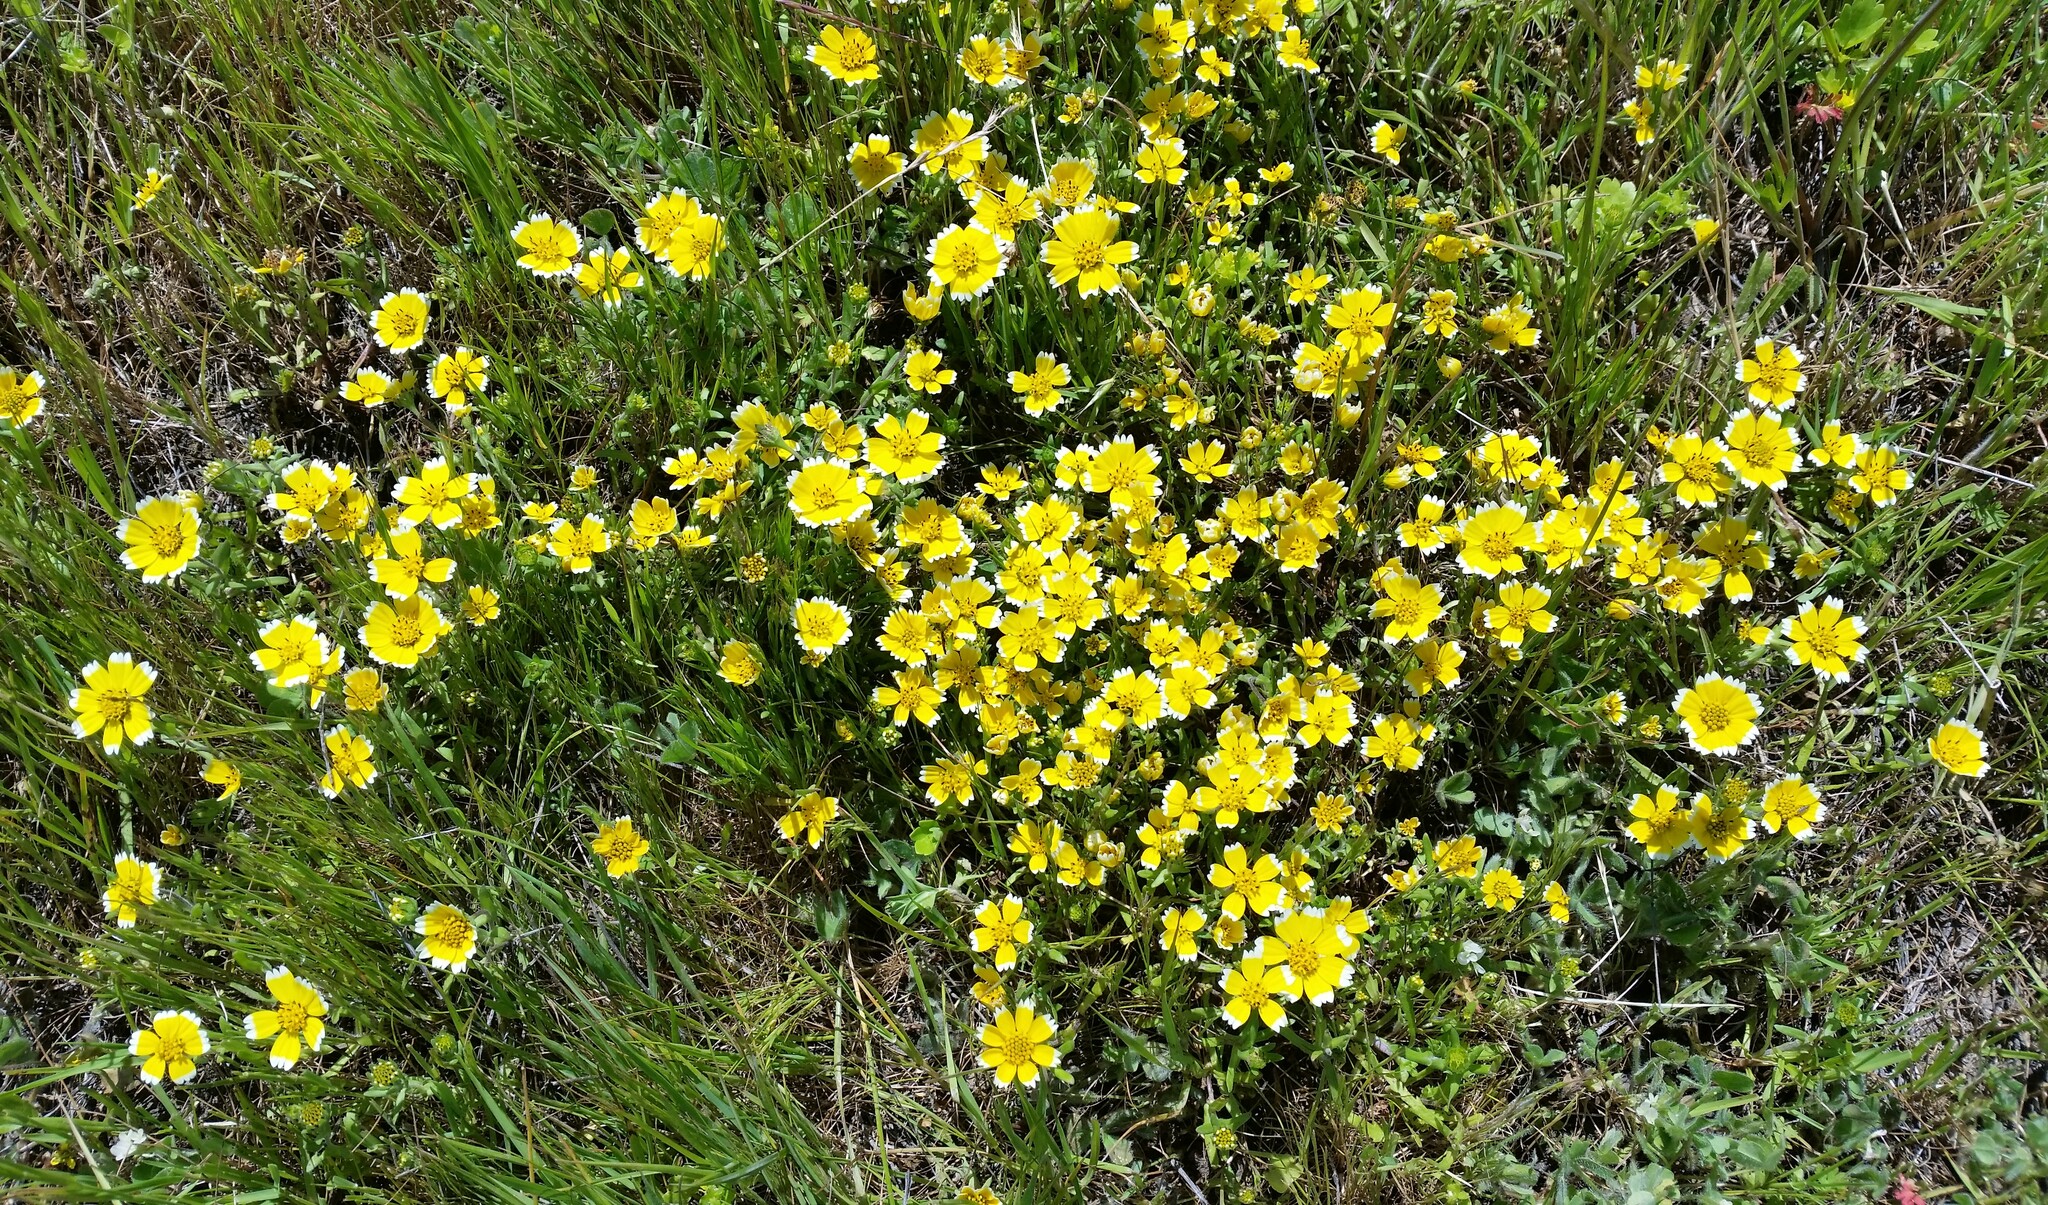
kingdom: Plantae
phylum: Tracheophyta
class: Magnoliopsida
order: Asterales
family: Asteraceae
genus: Layia
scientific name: Layia chrysanthemoides
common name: Smooth layia
